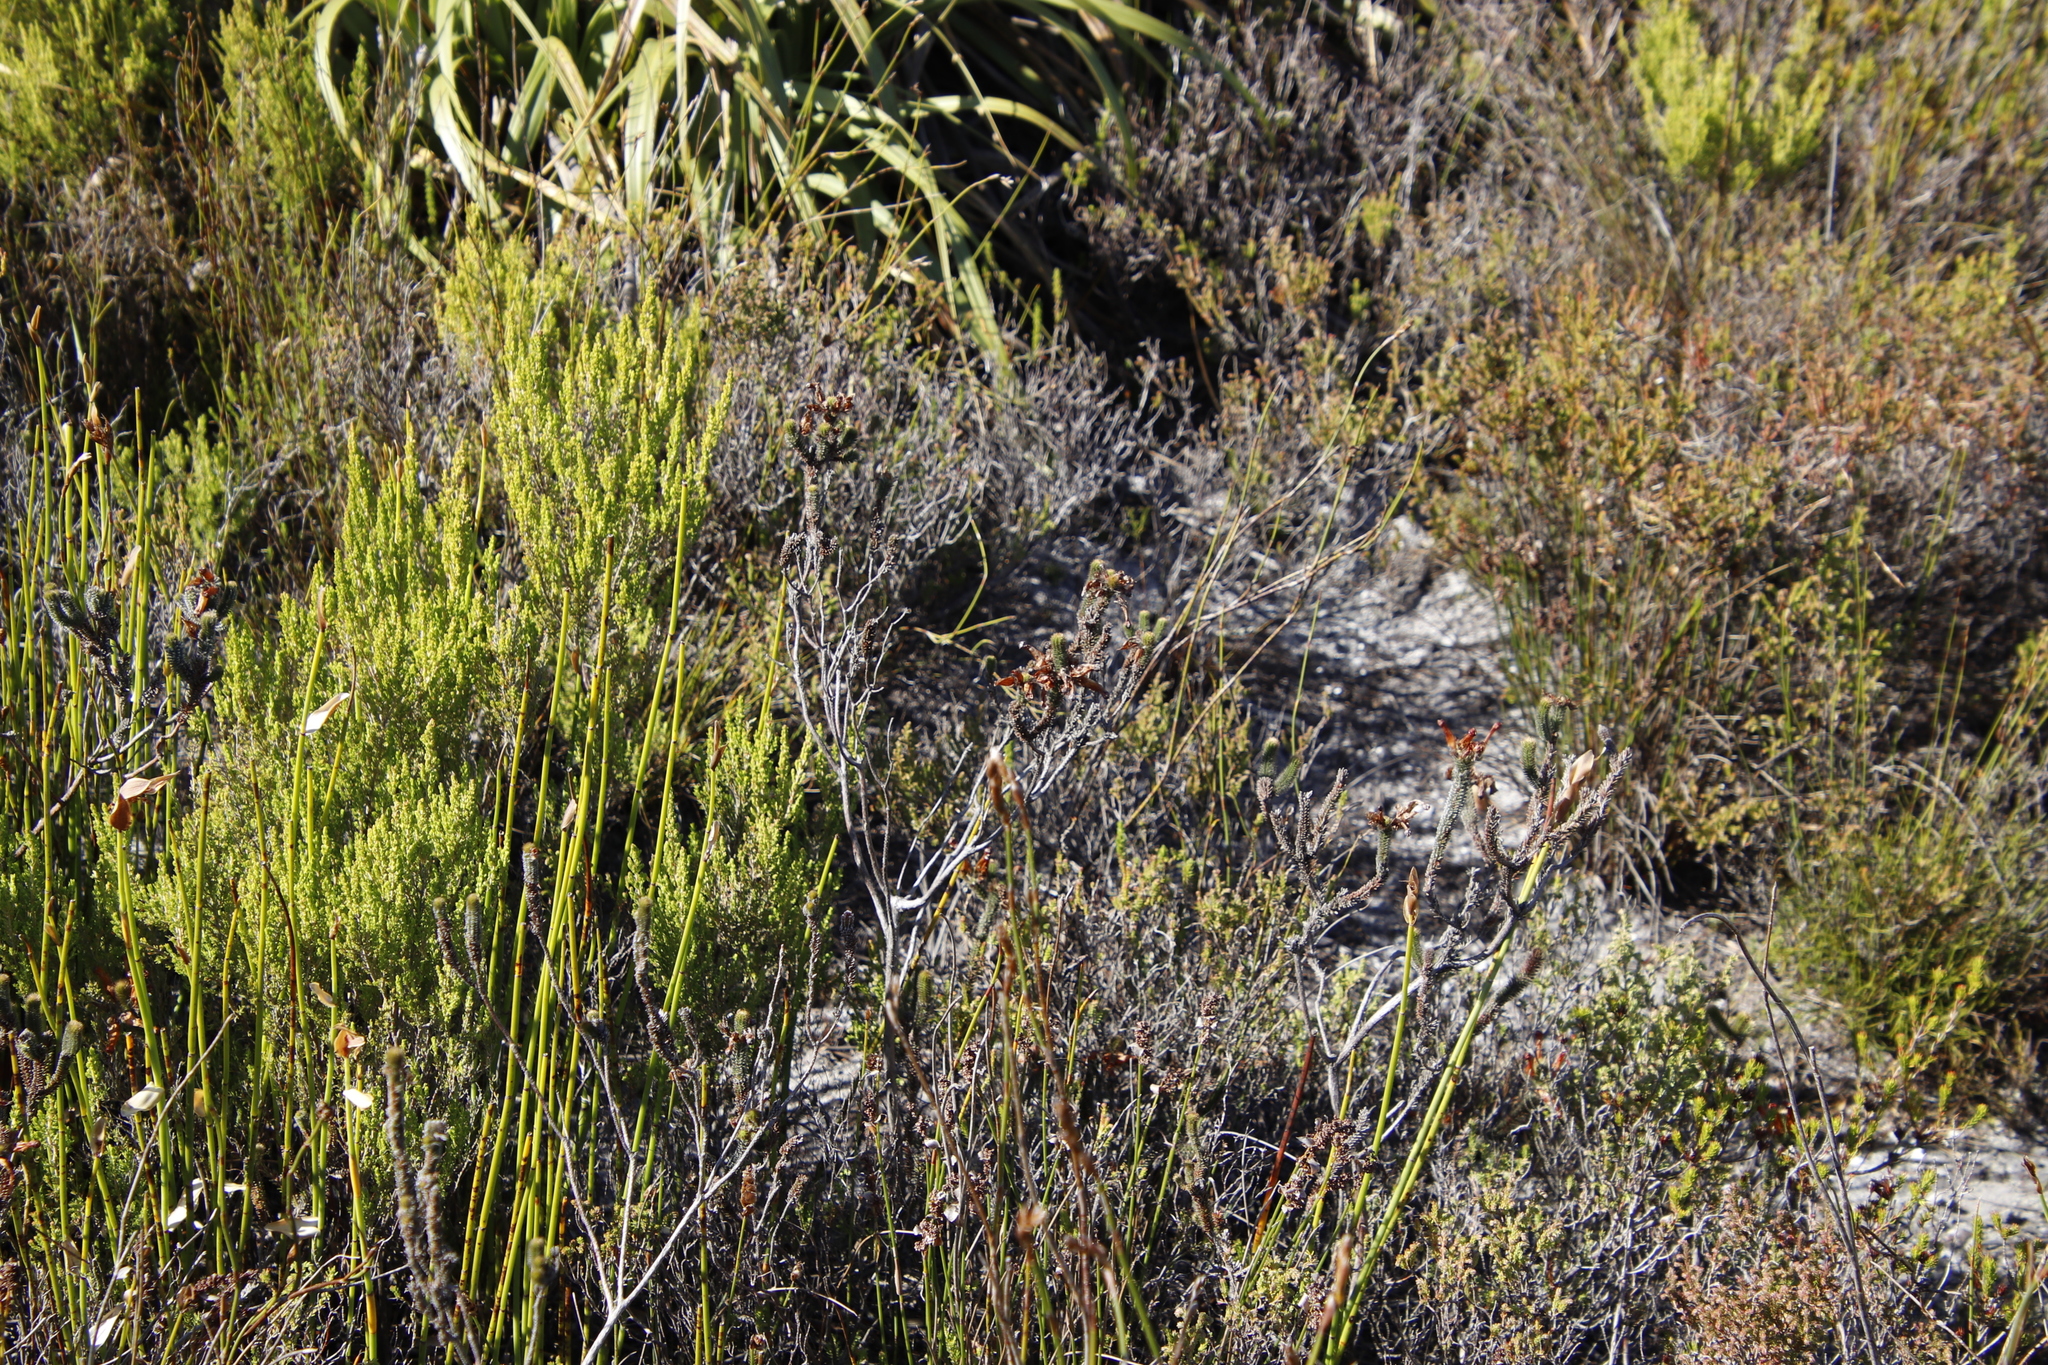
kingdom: Plantae
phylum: Tracheophyta
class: Magnoliopsida
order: Ericales
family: Ericaceae
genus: Erica
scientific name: Erica massonii
